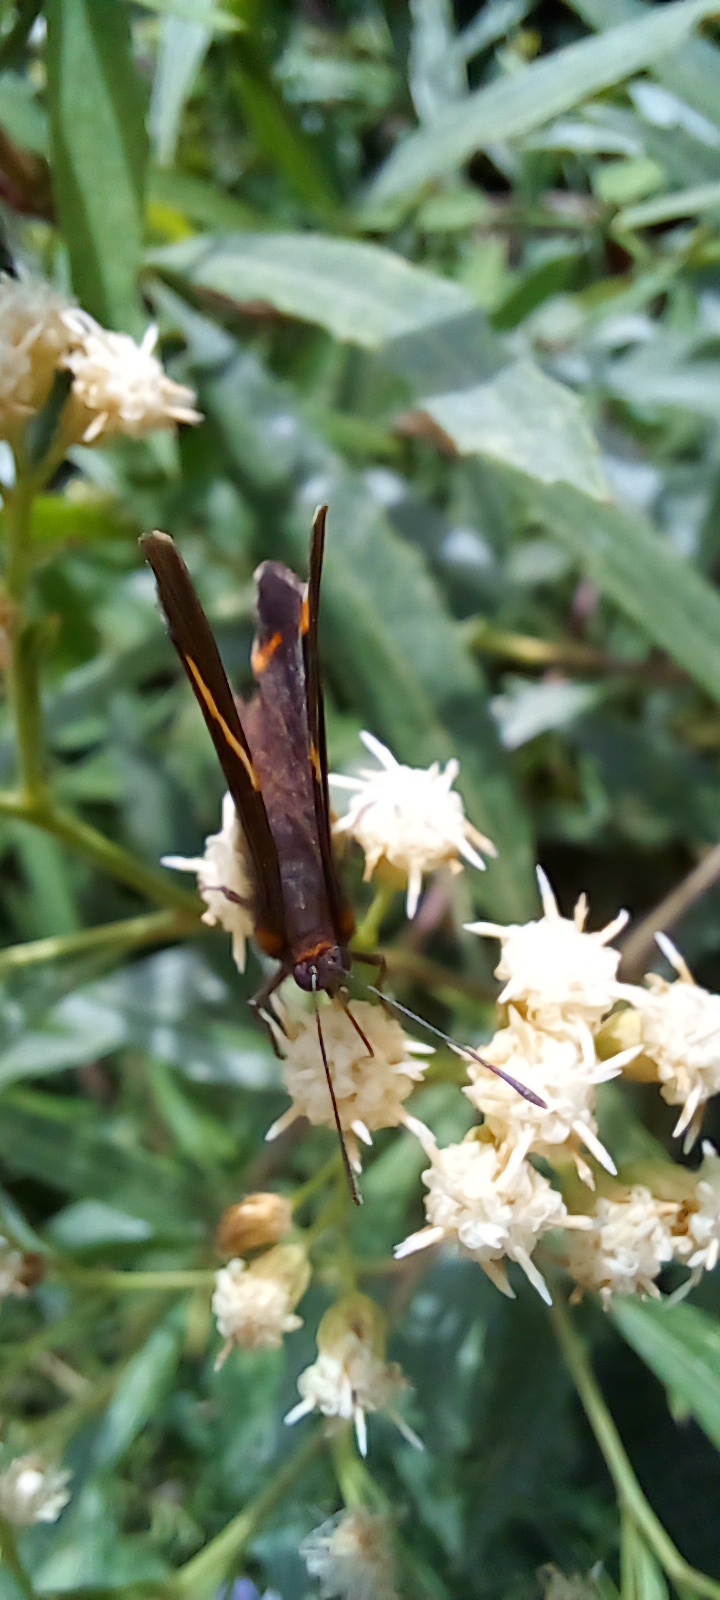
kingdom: Animalia
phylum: Arthropoda
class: Insecta
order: Lepidoptera
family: Riodinidae
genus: Riodina
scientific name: Riodina lysippoides
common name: Little dancer metalmark
